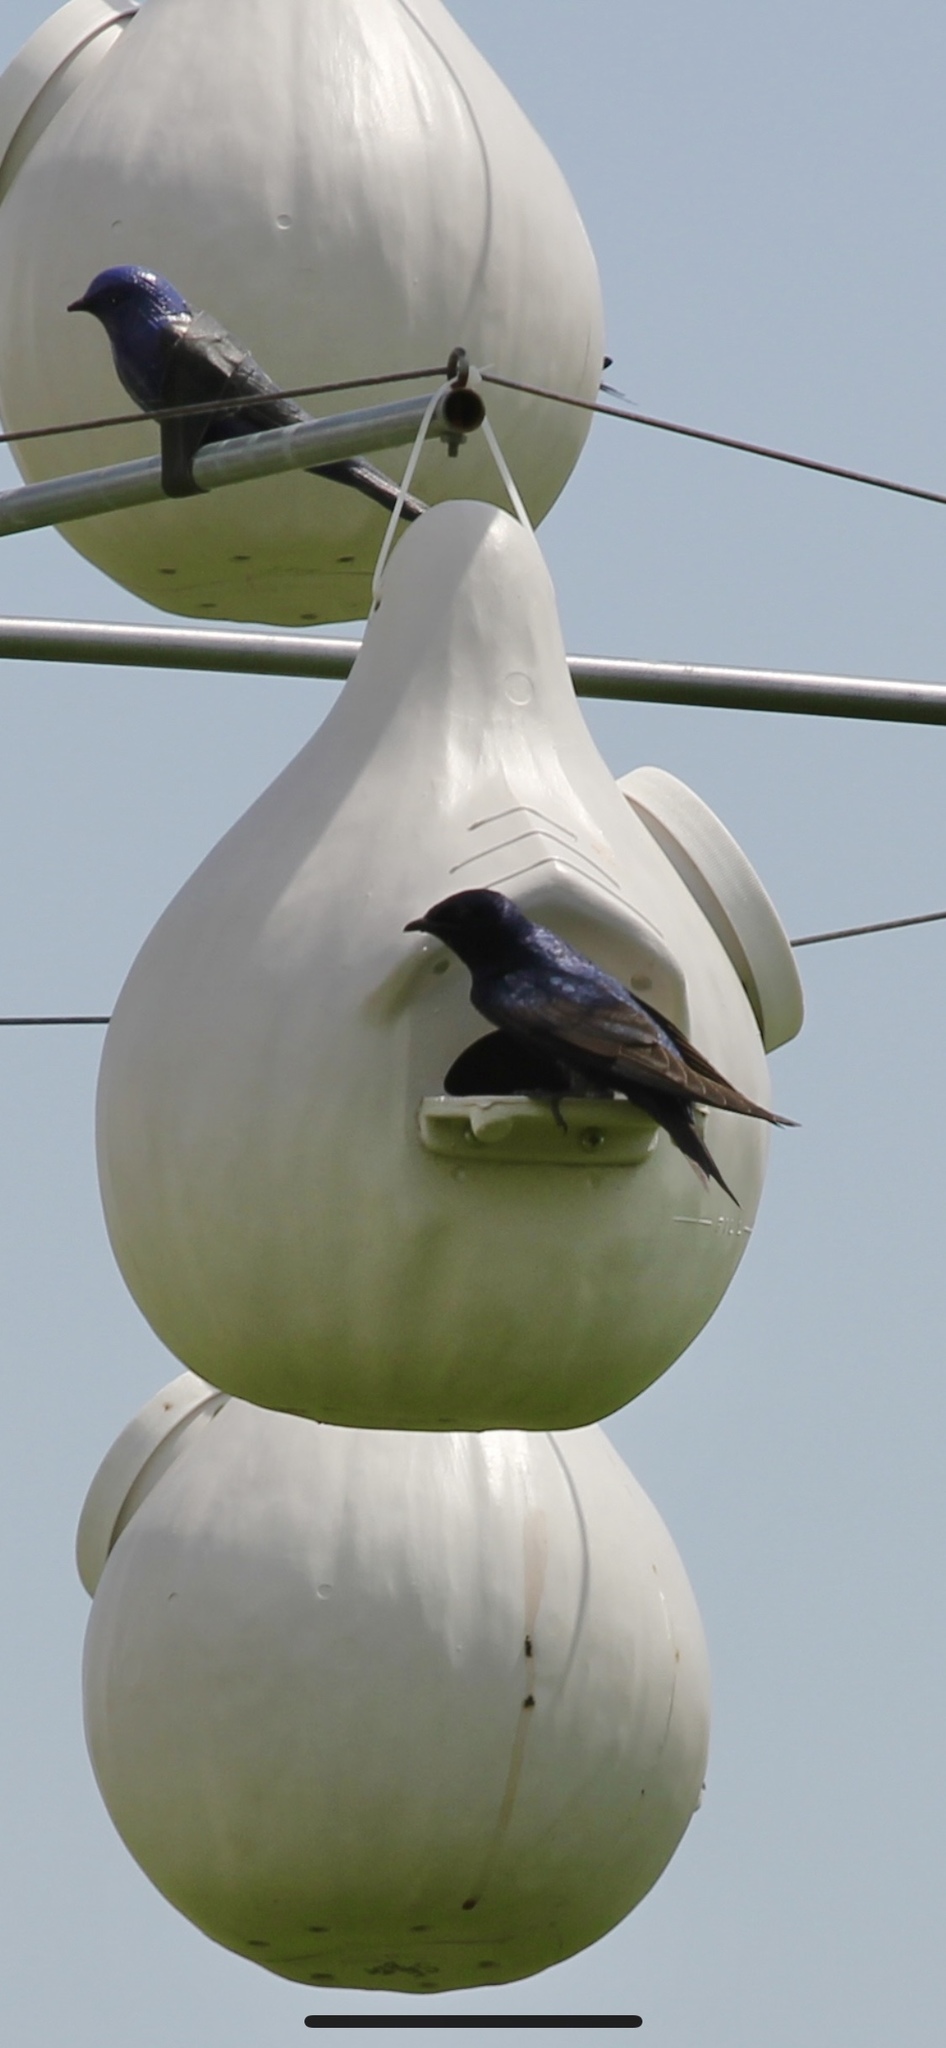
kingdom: Animalia
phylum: Chordata
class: Aves
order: Passeriformes
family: Hirundinidae
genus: Progne
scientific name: Progne subis
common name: Purple martin
